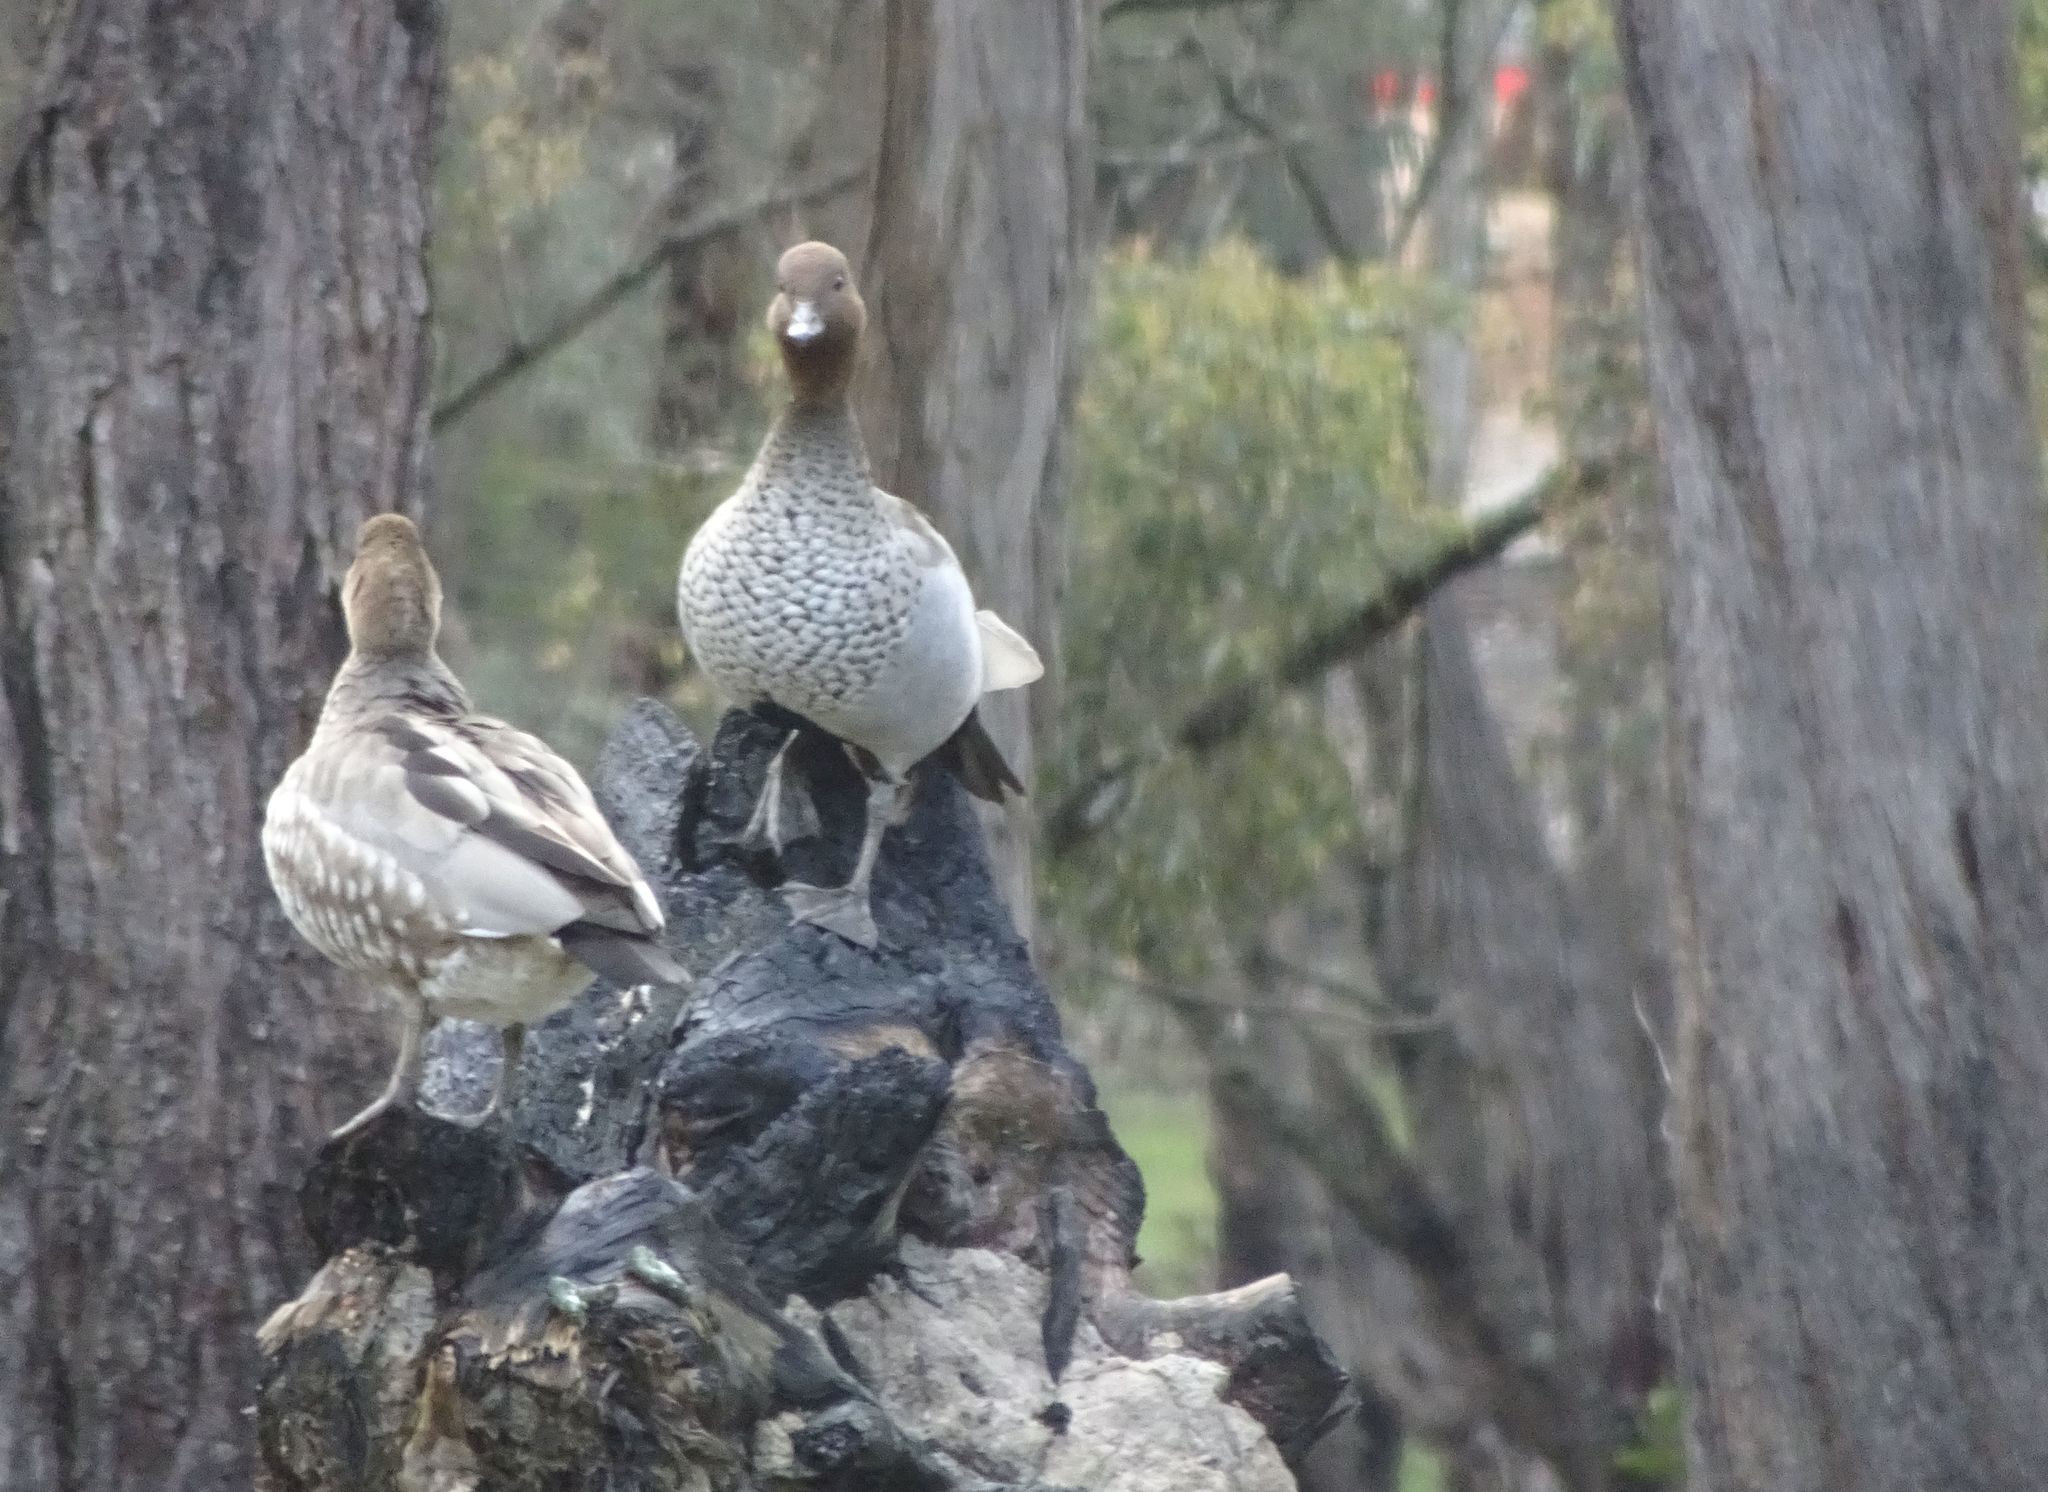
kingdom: Animalia
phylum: Chordata
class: Aves
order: Anseriformes
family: Anatidae
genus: Chenonetta
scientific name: Chenonetta jubata
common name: Maned duck
